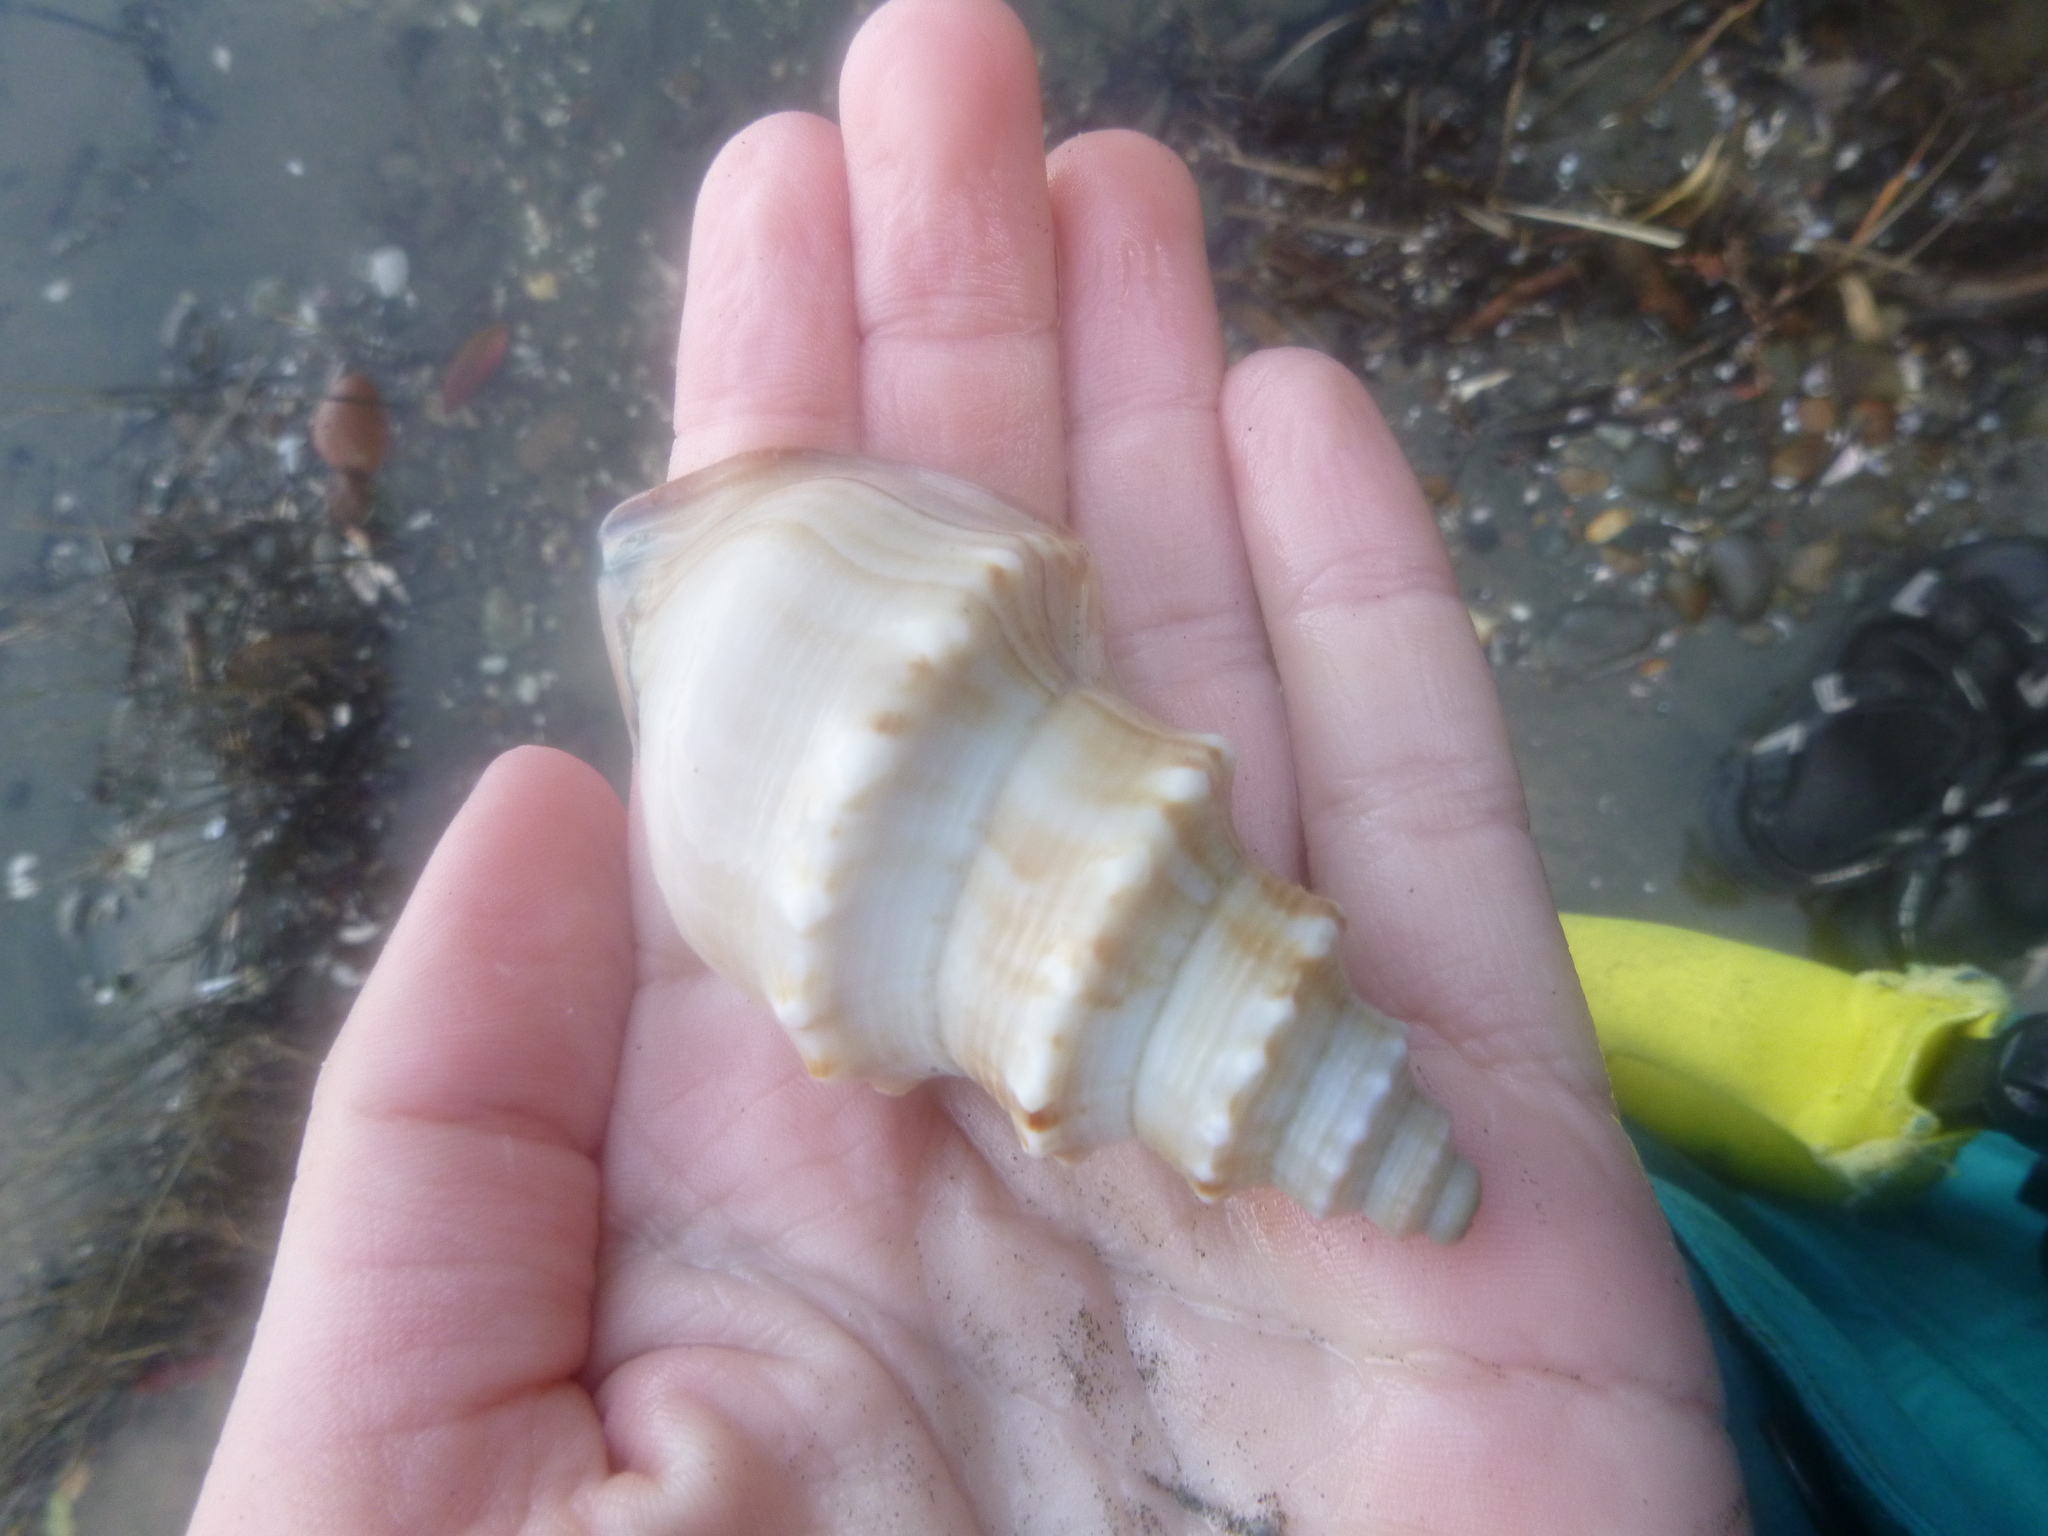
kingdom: Animalia
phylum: Mollusca
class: Gastropoda
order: Littorinimorpha
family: Struthiolariidae
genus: Struthiolaria
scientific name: Struthiolaria papulosa
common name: Large ostrich foot
